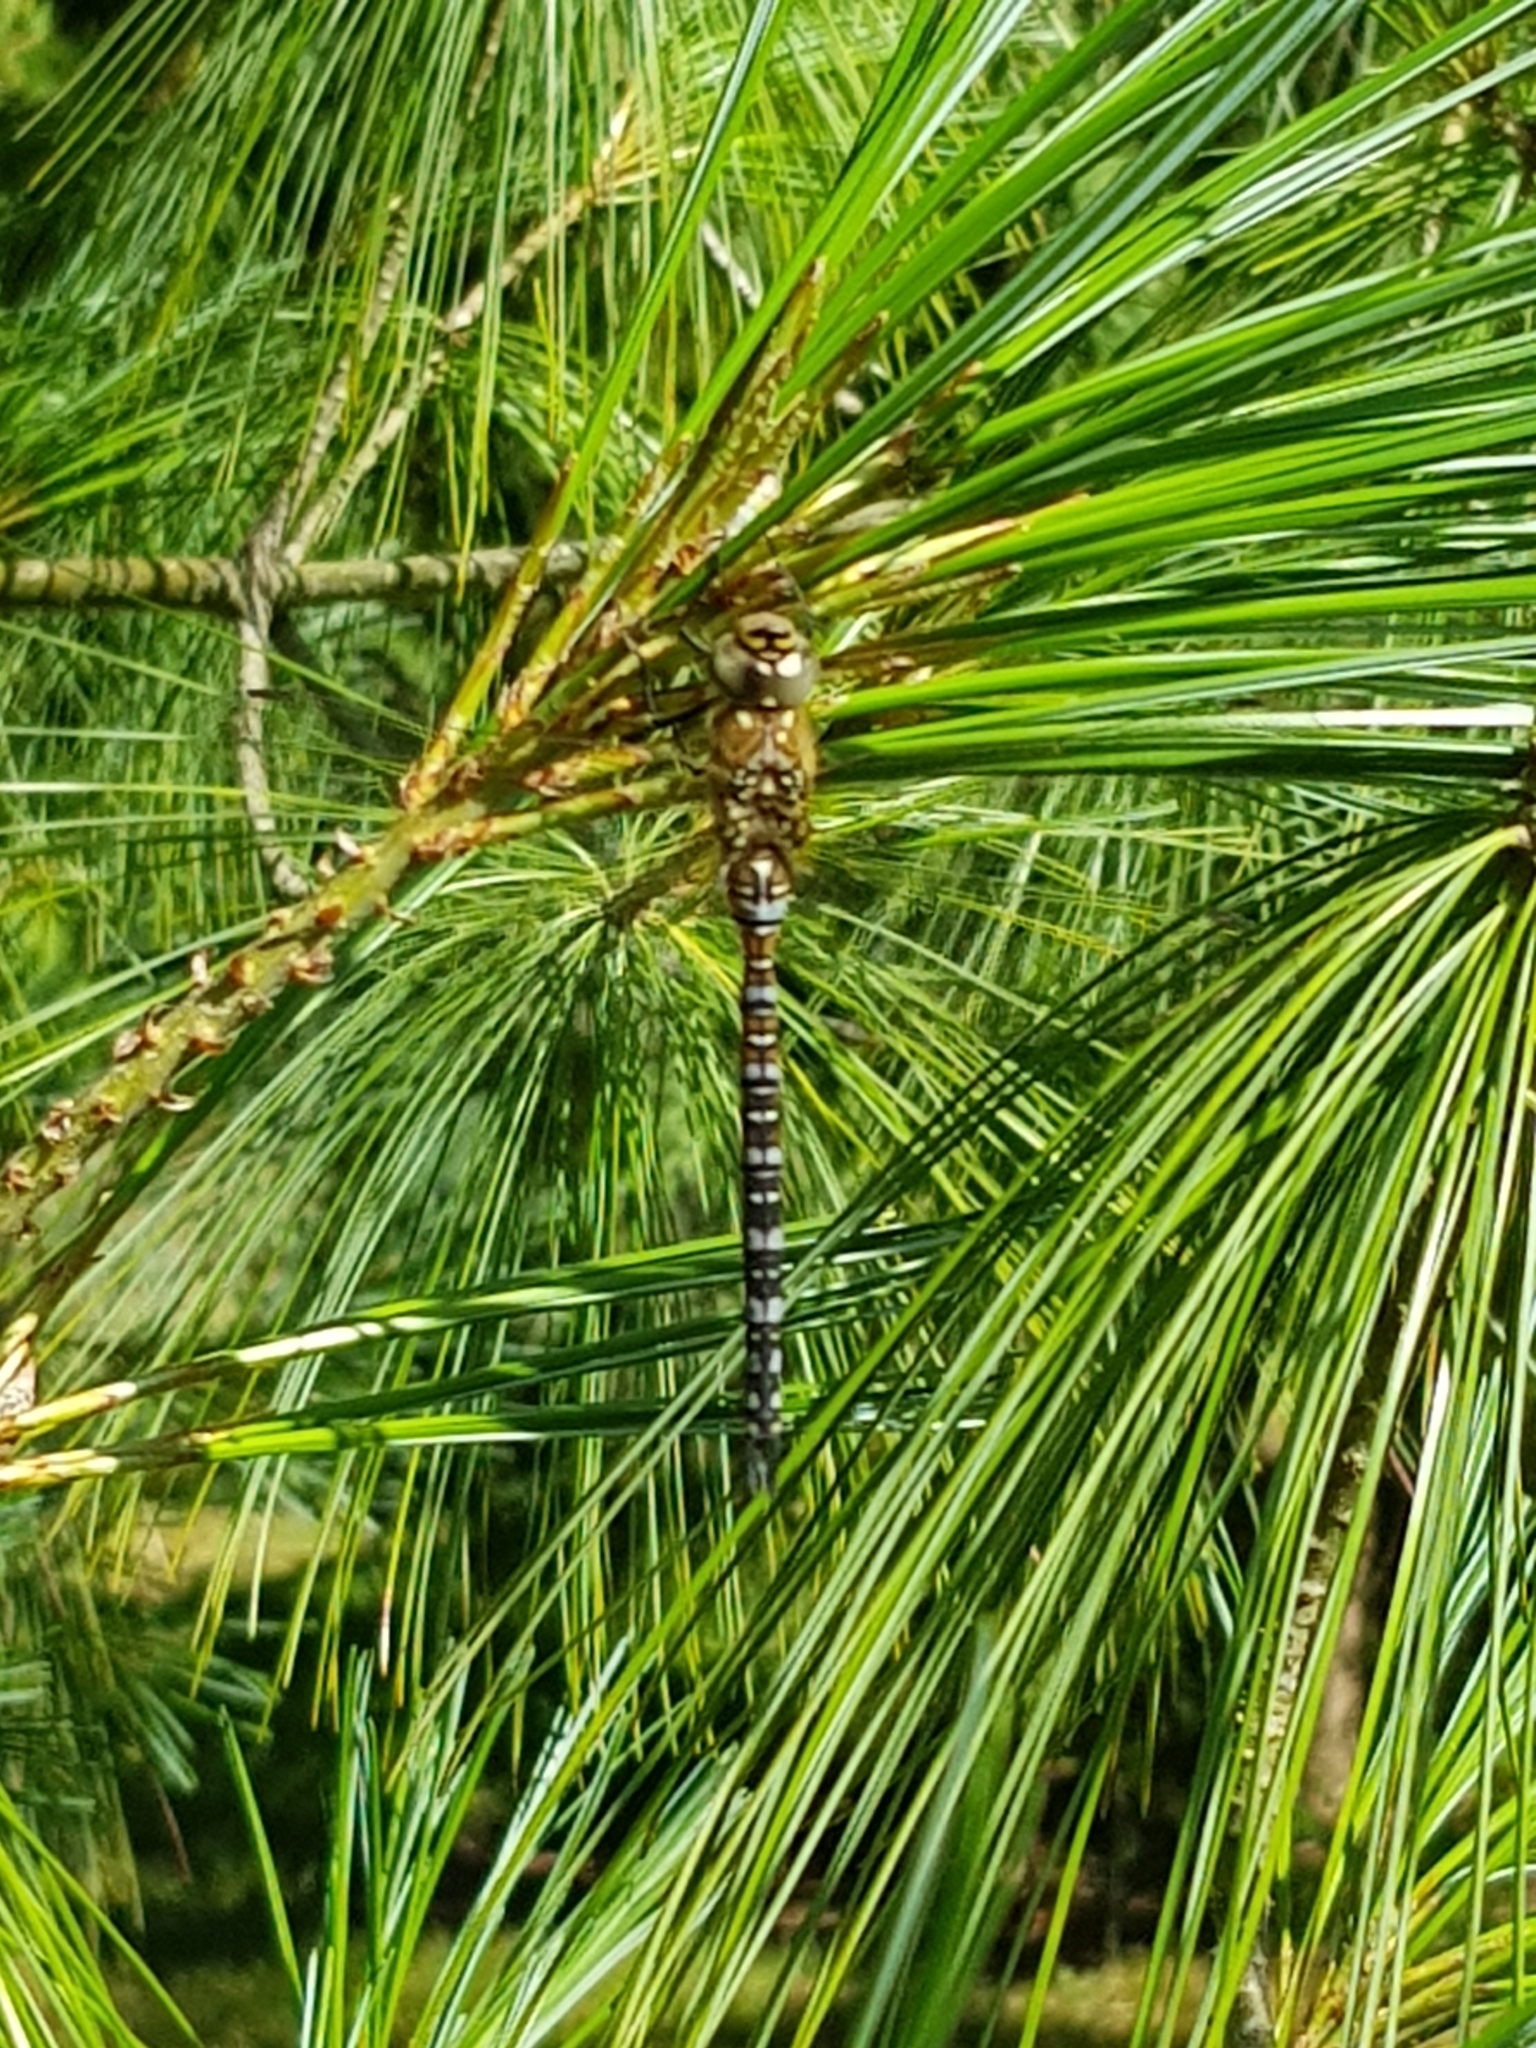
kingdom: Animalia
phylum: Arthropoda
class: Insecta
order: Odonata
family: Aeshnidae
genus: Aeshna
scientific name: Aeshna mixta
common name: Migrant hawker
